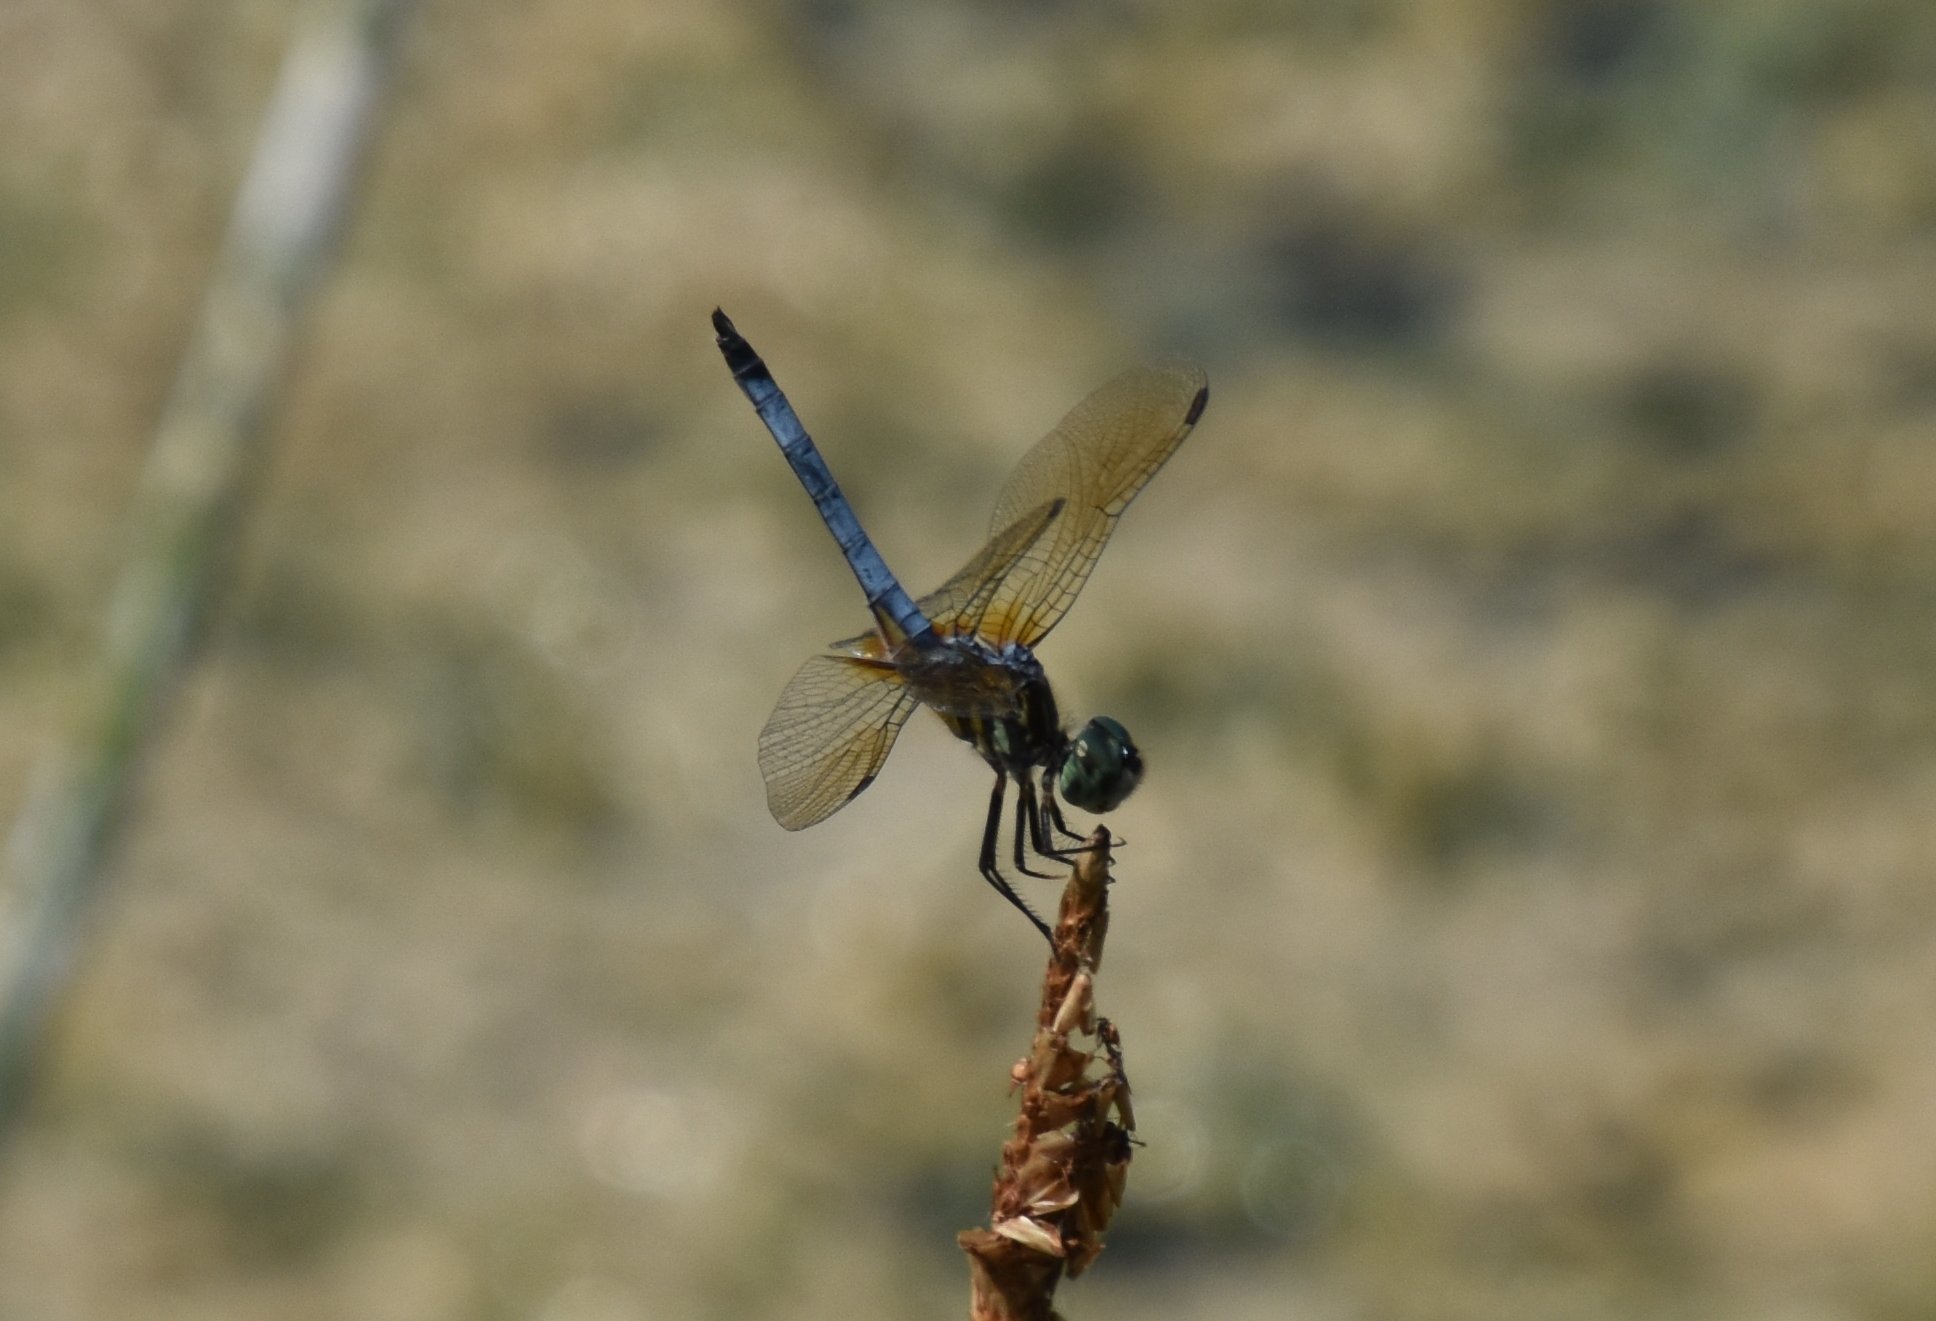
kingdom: Animalia
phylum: Arthropoda
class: Insecta
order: Odonata
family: Libellulidae
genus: Pachydiplax
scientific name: Pachydiplax longipennis
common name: Blue dasher
